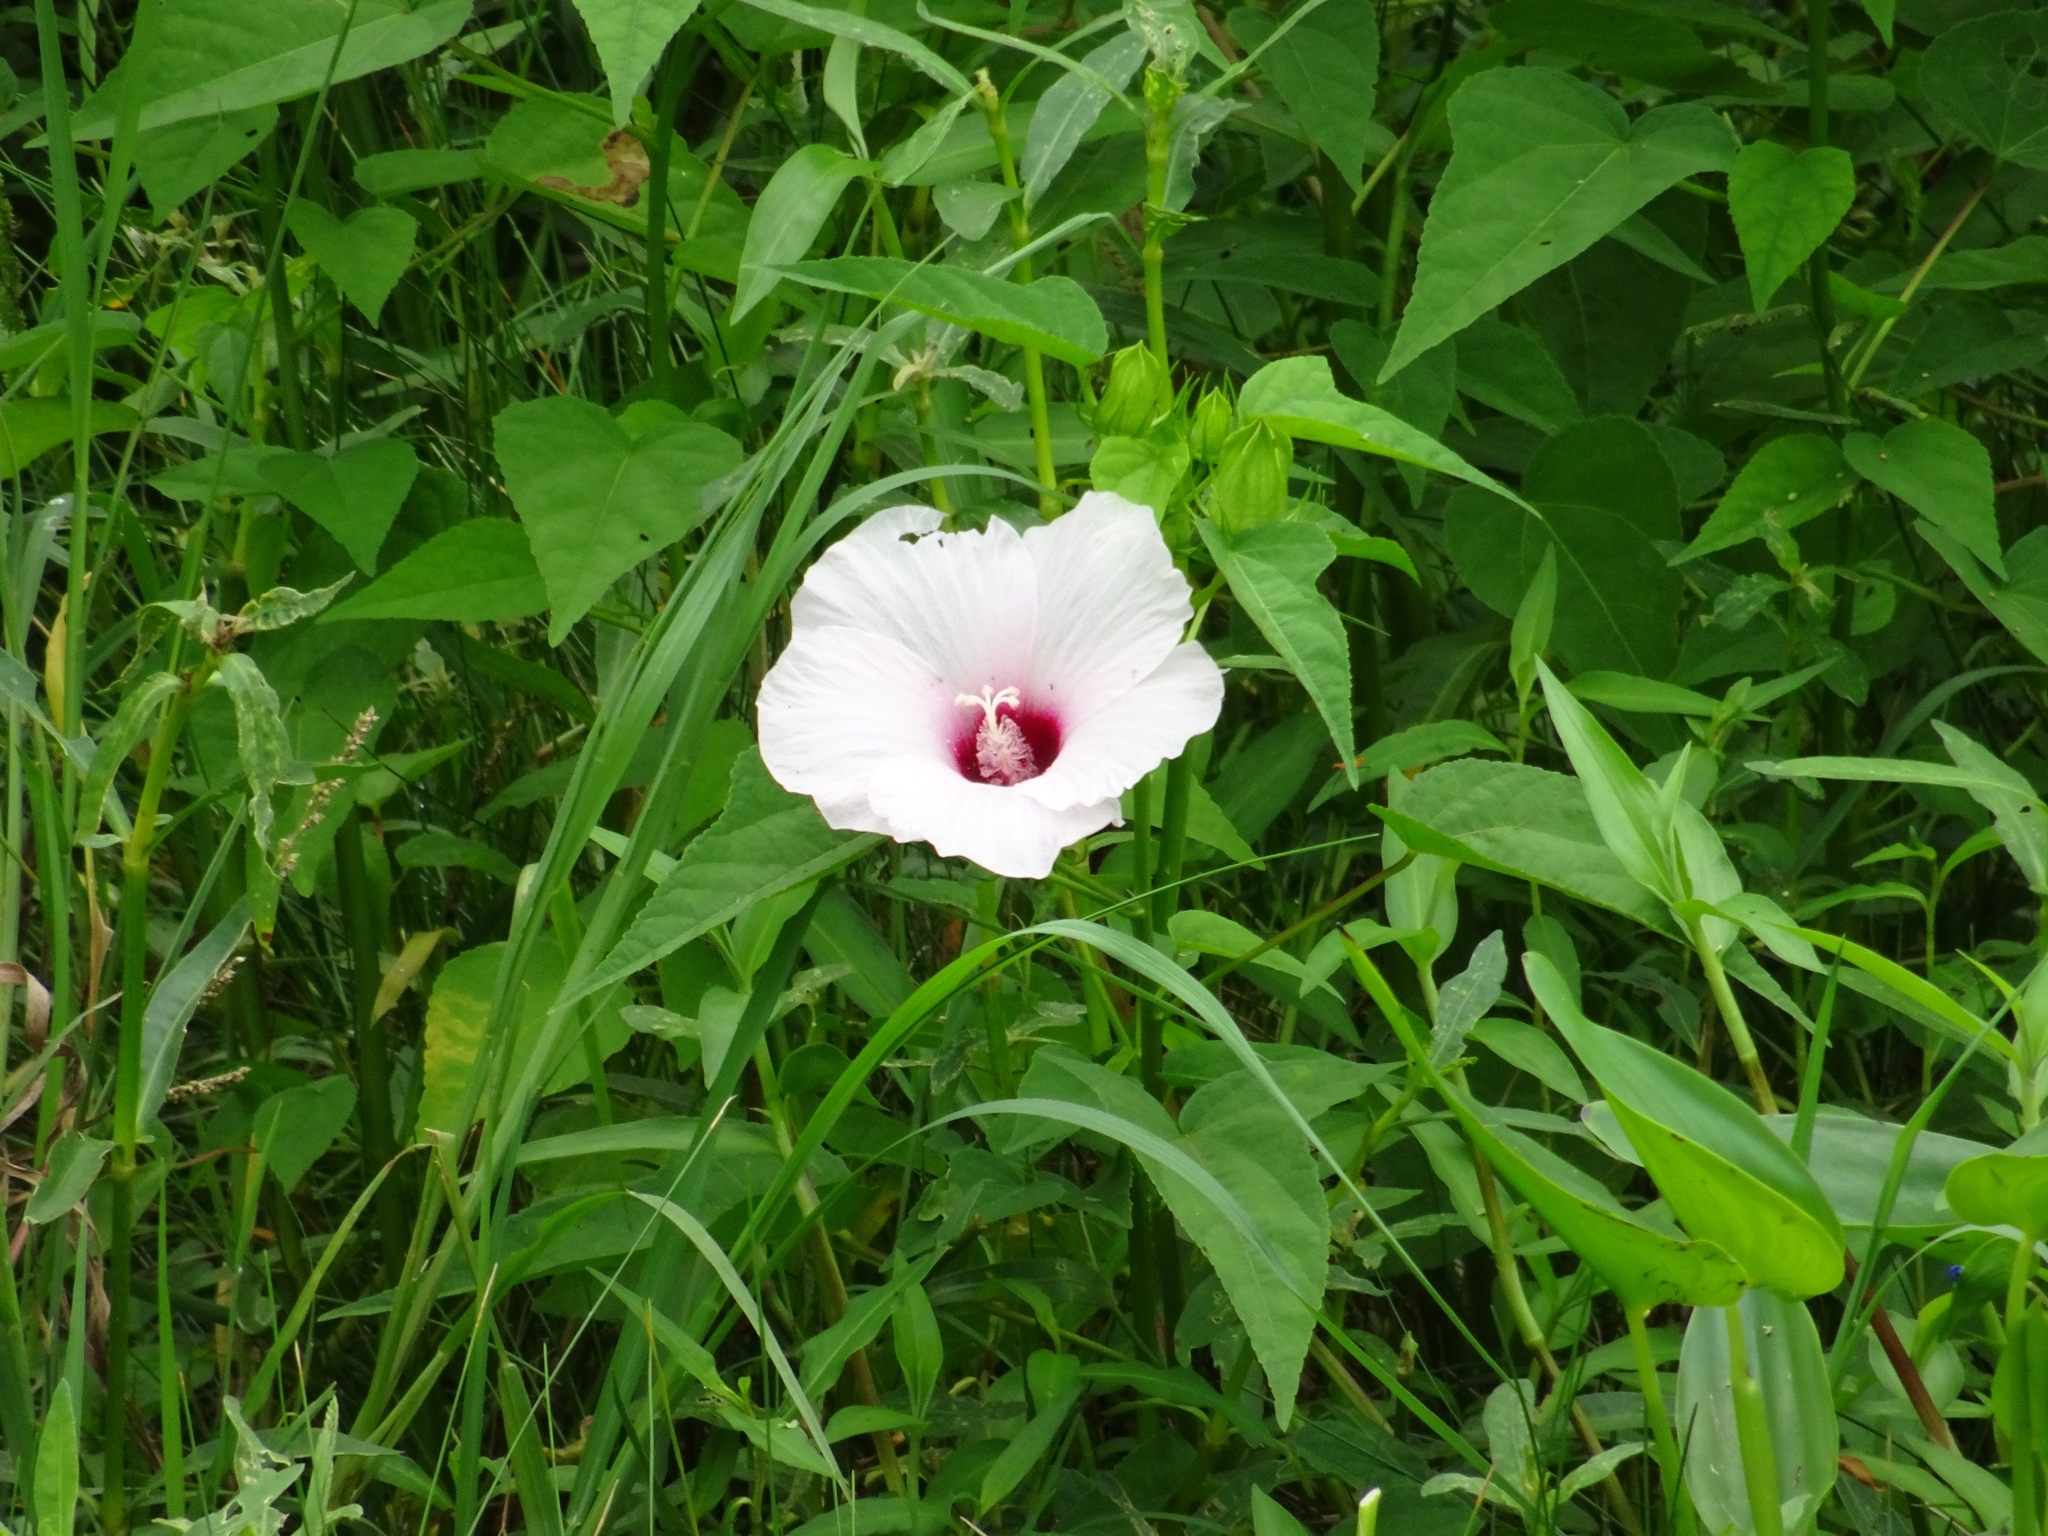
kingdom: Plantae
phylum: Tracheophyta
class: Magnoliopsida
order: Malvales
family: Malvaceae
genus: Hibiscus
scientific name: Hibiscus laevis
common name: Scarlet rose-mallow
